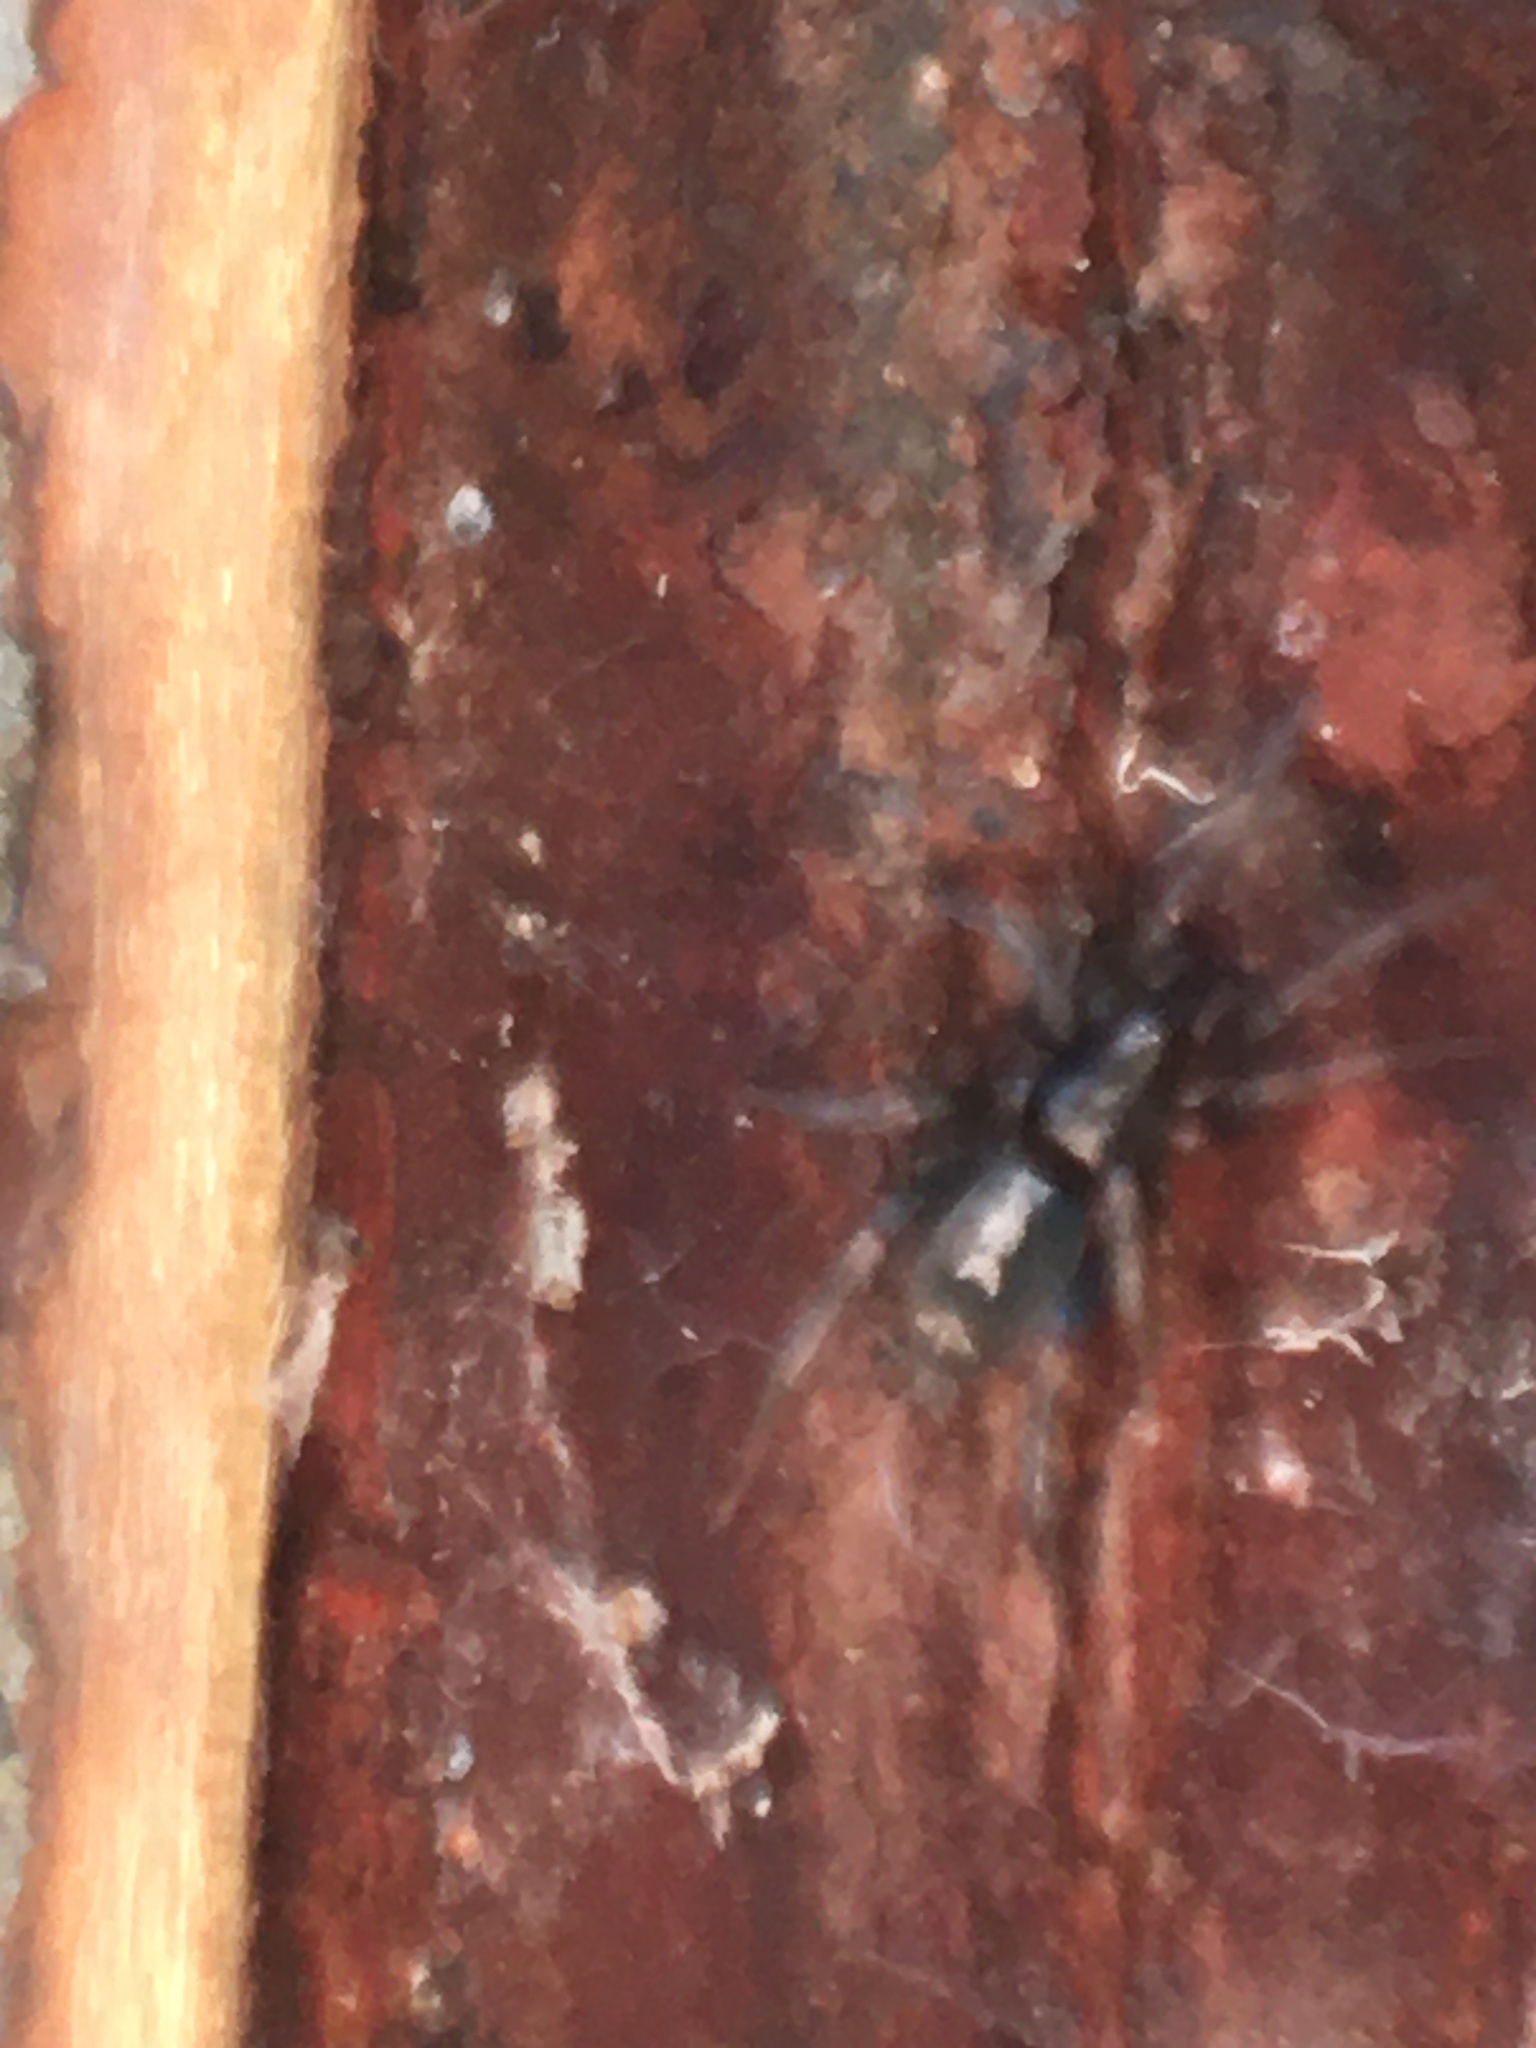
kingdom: Animalia
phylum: Arthropoda
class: Arachnida
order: Araneae
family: Gnaphosidae
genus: Herpyllus
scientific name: Herpyllus ecclesiasticus
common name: Eastern parson spider
